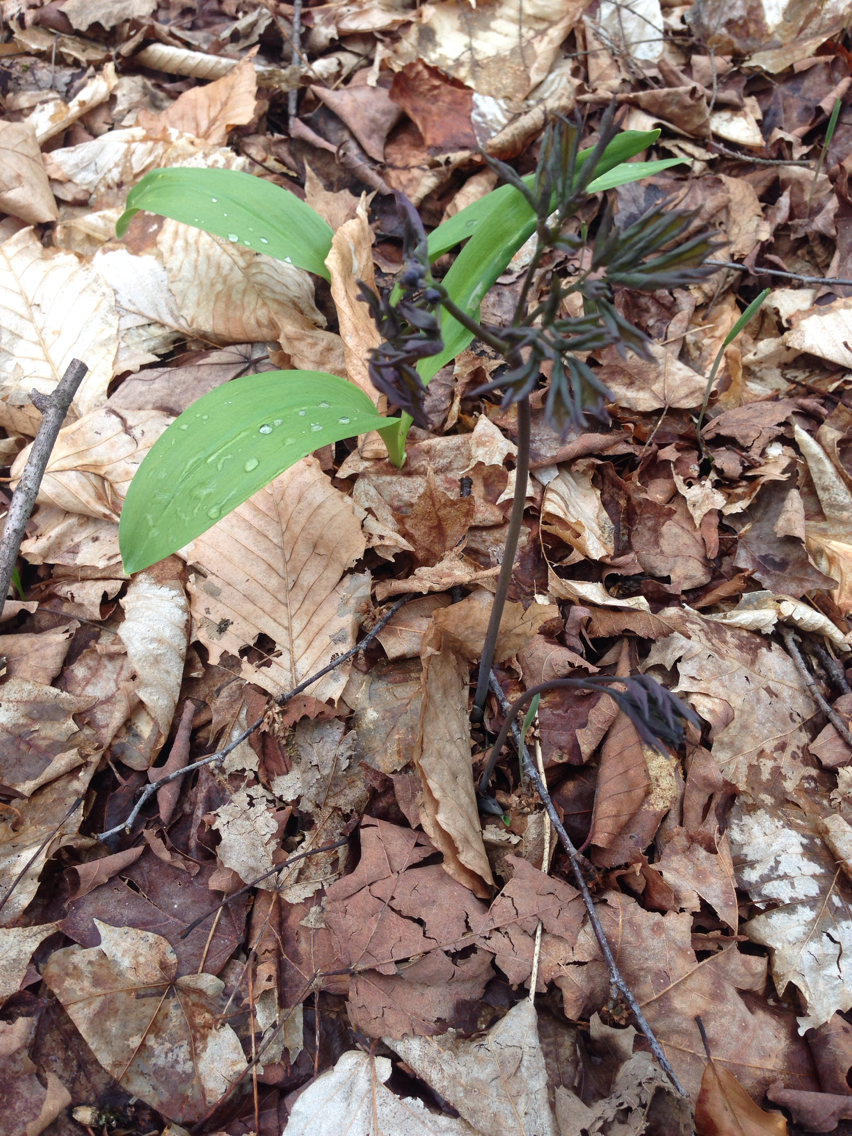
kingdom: Plantae
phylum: Tracheophyta
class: Magnoliopsida
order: Ranunculales
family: Berberidaceae
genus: Caulophyllum
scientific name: Caulophyllum
